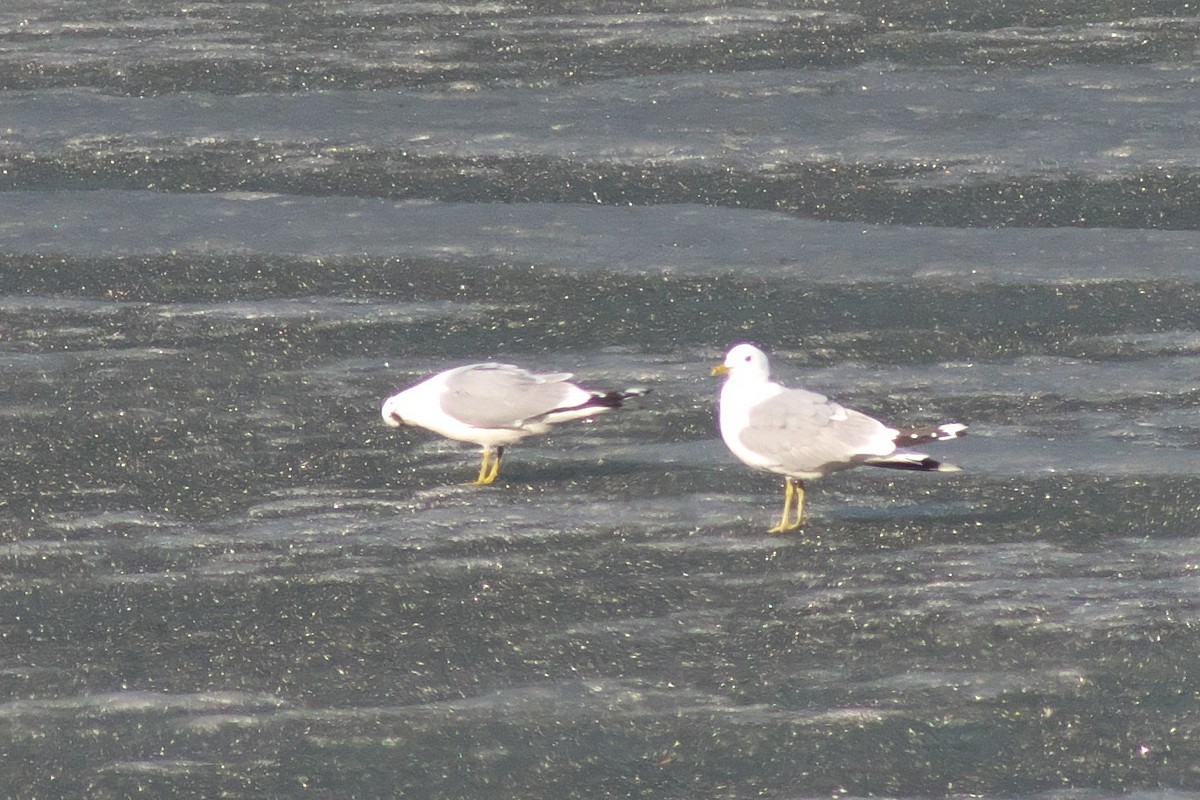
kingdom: Animalia
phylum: Chordata
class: Aves
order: Charadriiformes
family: Laridae
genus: Larus
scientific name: Larus canus
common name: Mew gull
